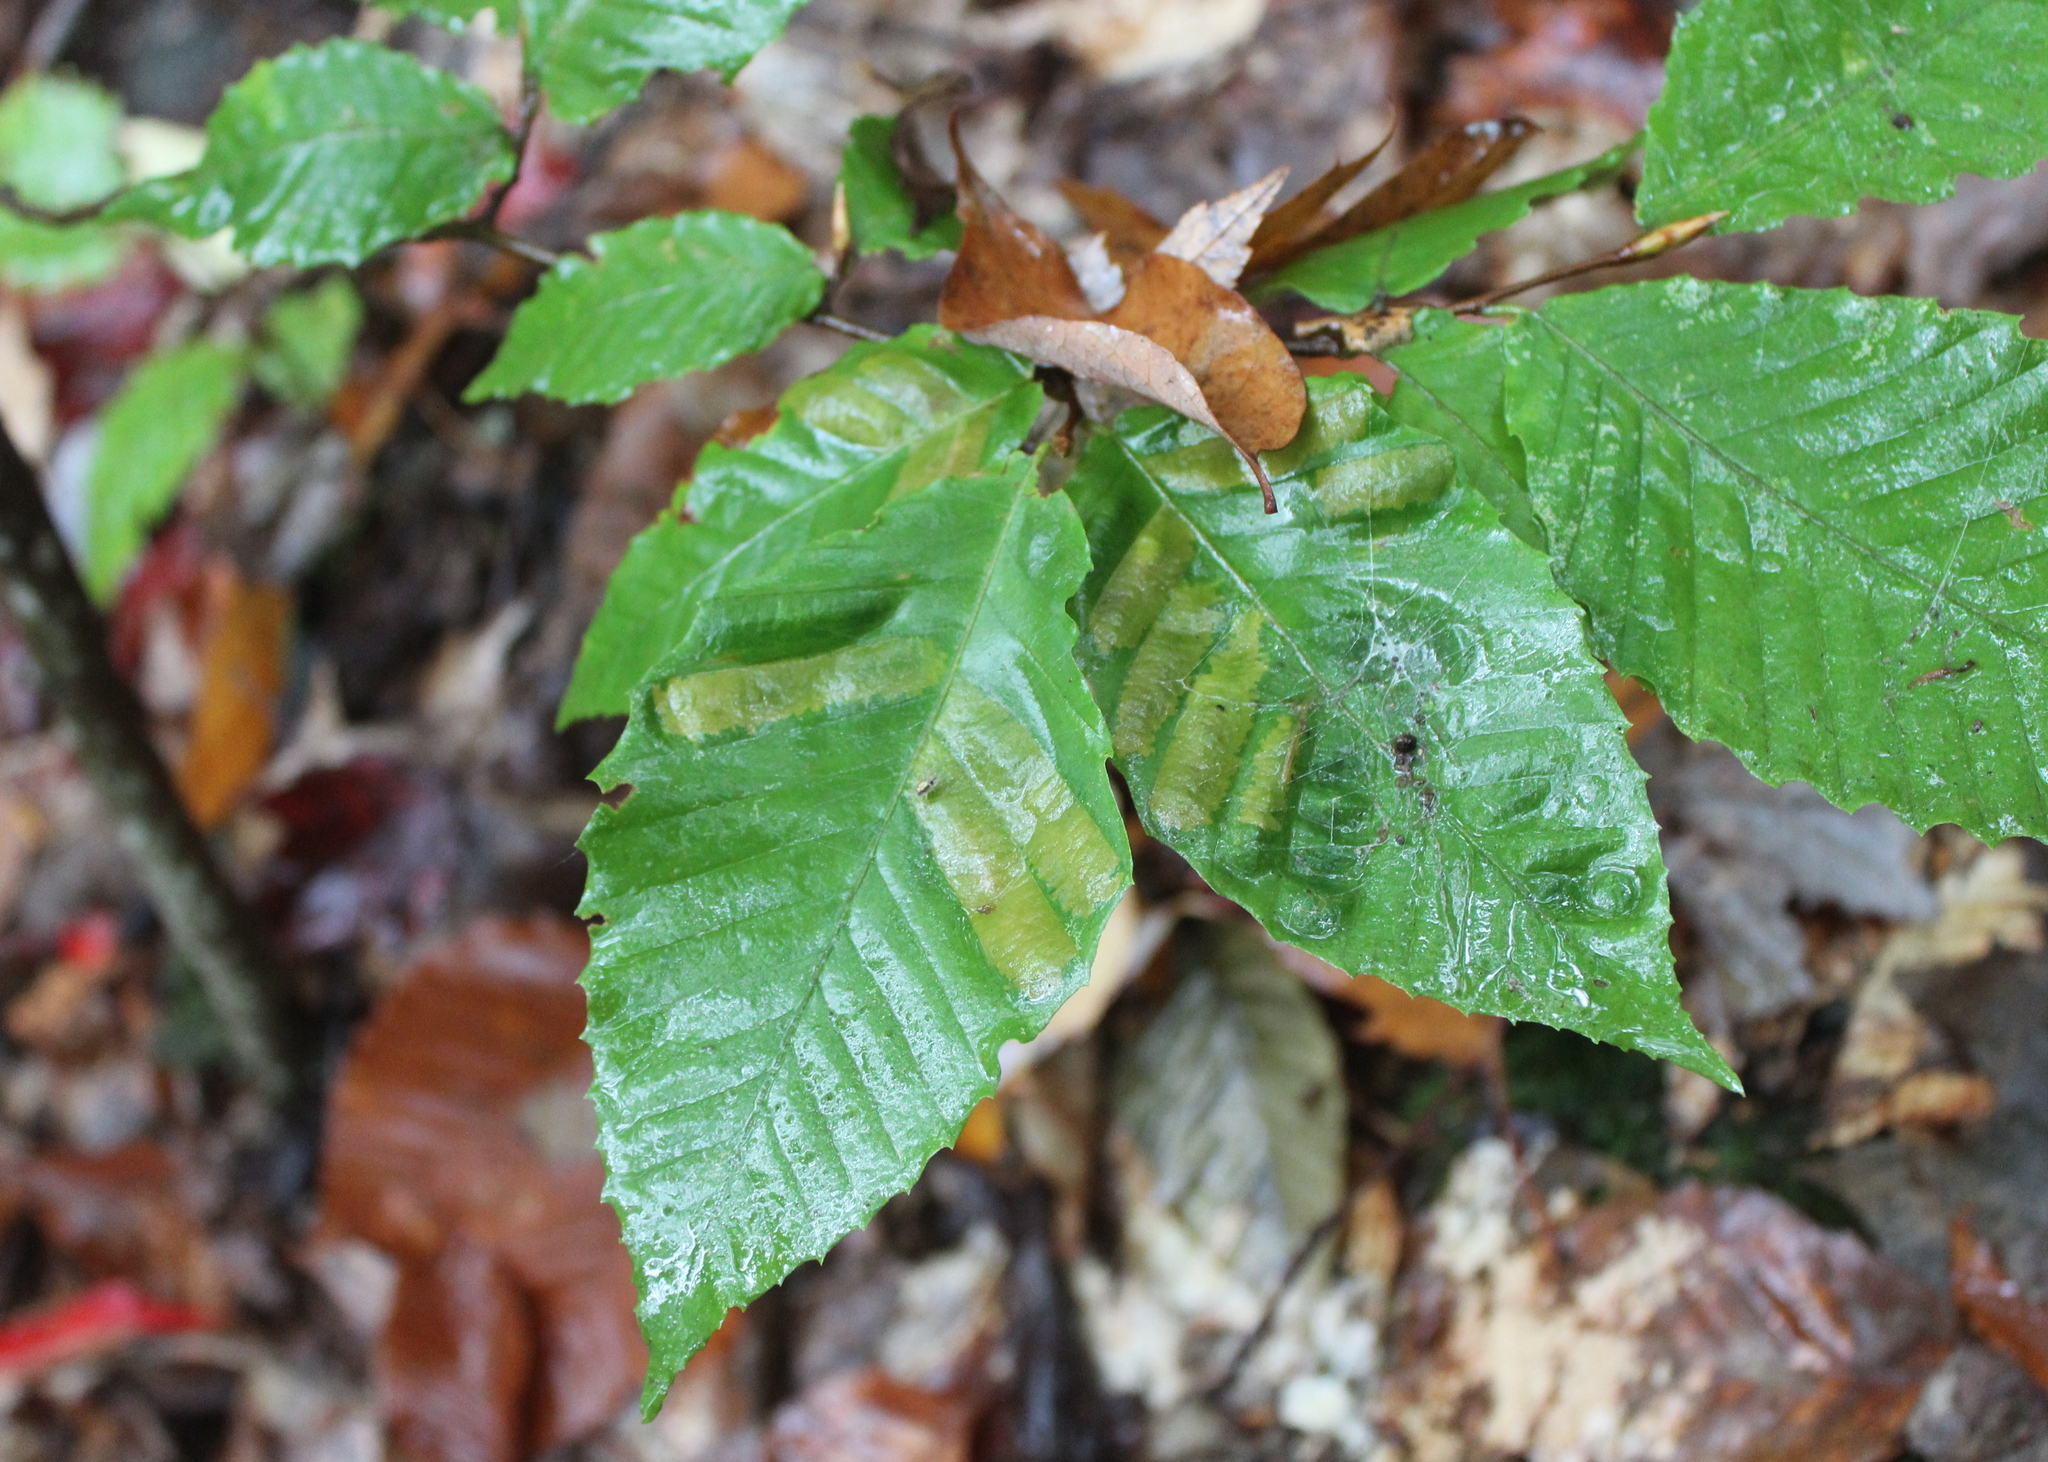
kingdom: Animalia
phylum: Nematoda
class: Chromadorea
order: Rhabditida
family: Anguinidae
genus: Litylenchus
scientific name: Litylenchus crenatae
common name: Beech leaf disease
